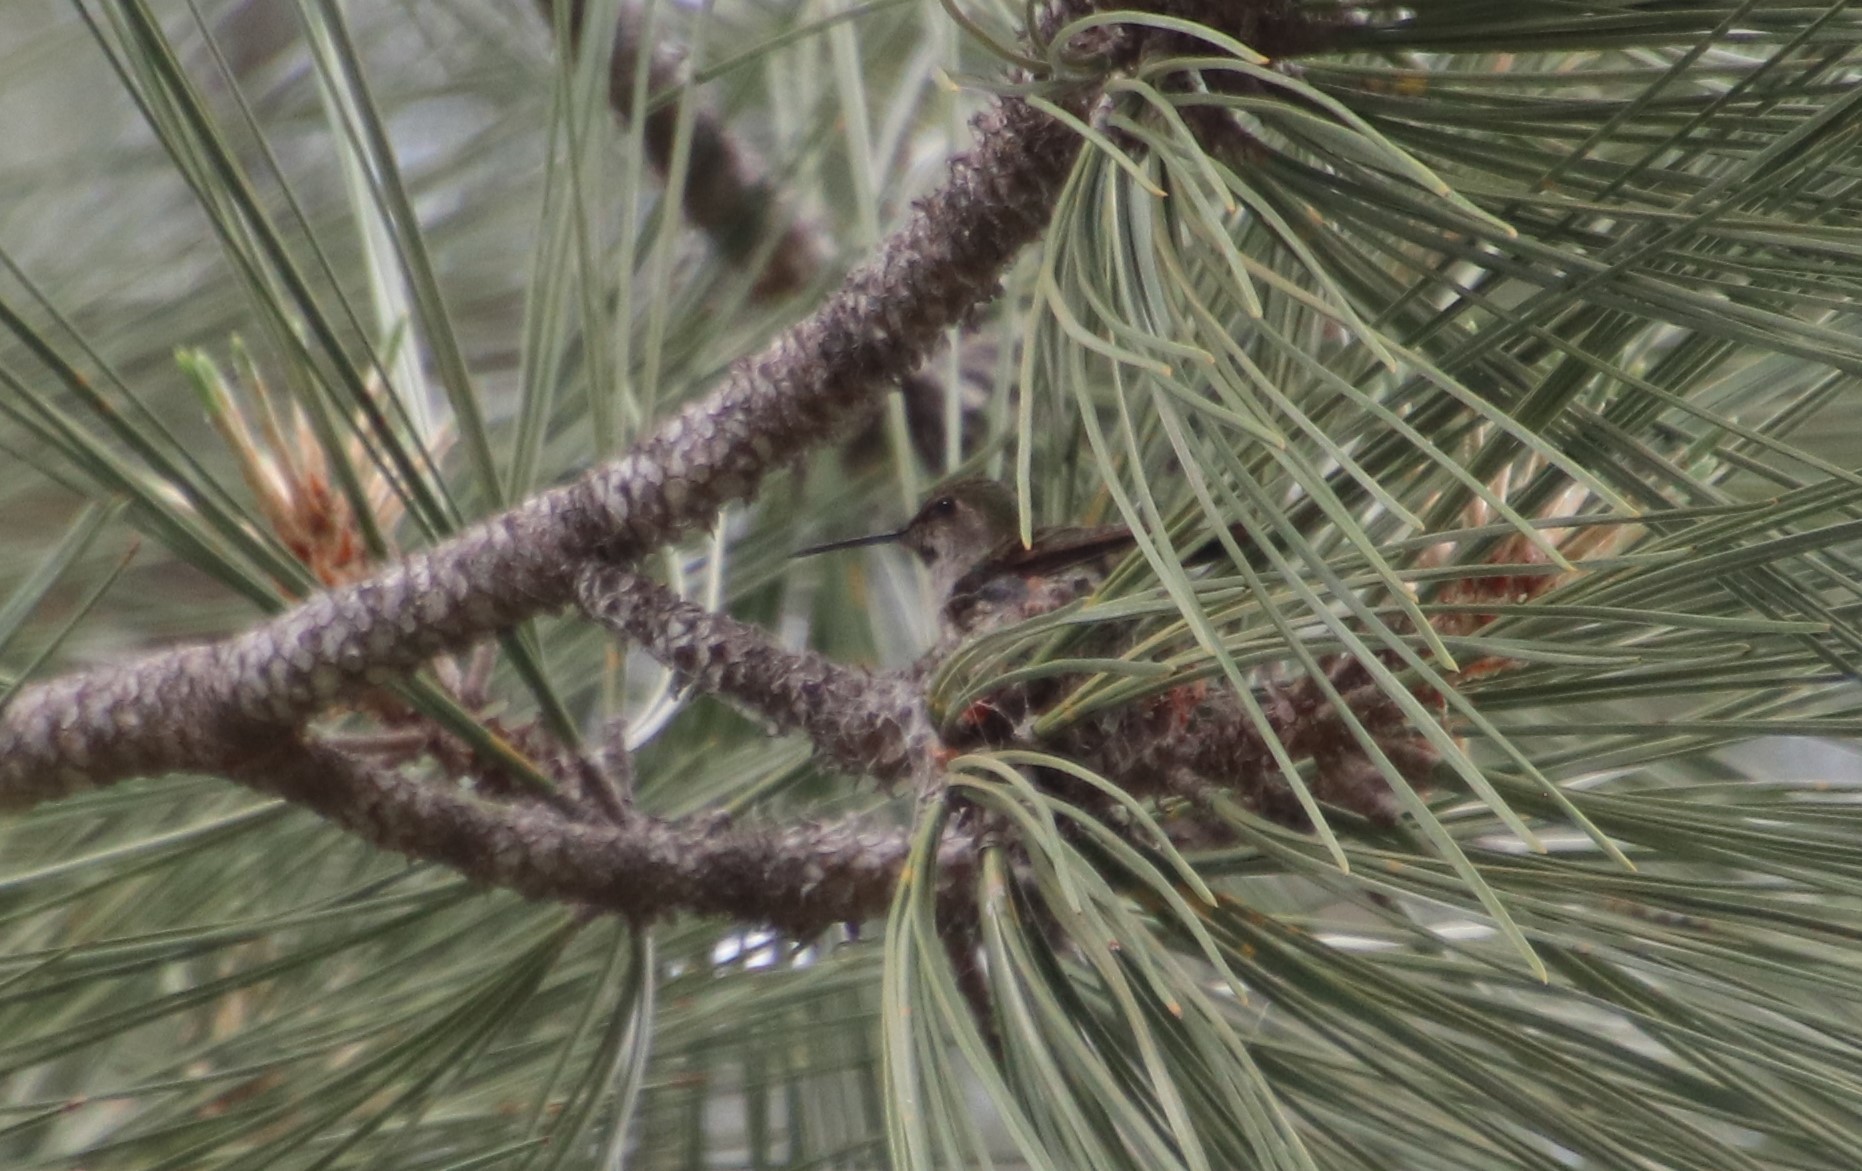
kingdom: Animalia
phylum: Chordata
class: Aves
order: Apodiformes
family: Trochilidae
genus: Calypte
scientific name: Calypte anna
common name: Anna's hummingbird
